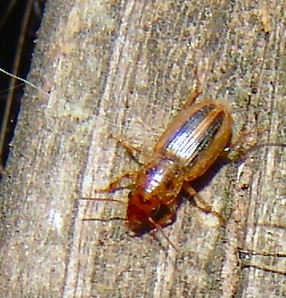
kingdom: Animalia
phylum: Arthropoda
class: Insecta
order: Coleoptera
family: Carabidae
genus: Stenolophus
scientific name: Stenolophus lineola
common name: Lined stenolophus
